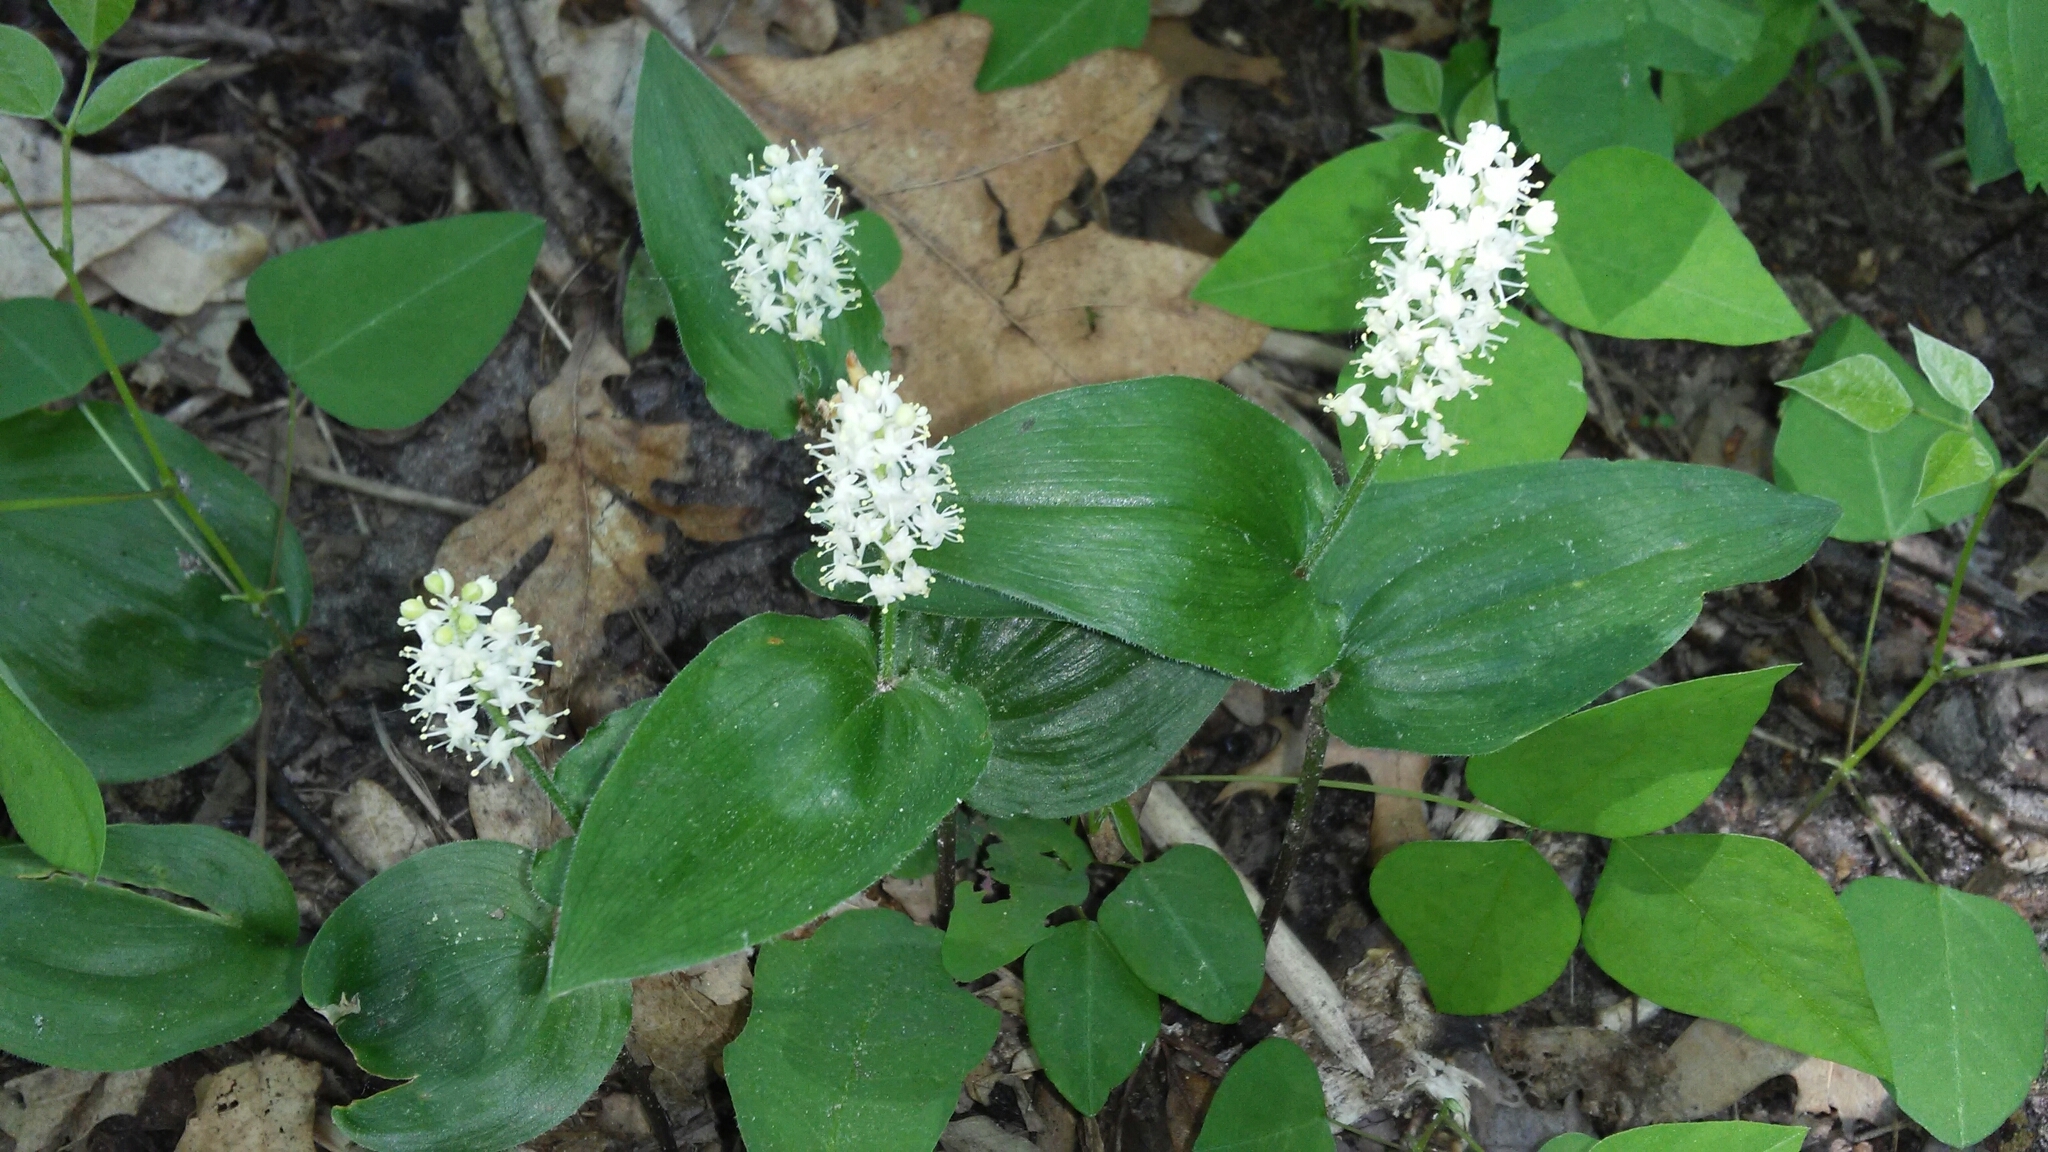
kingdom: Plantae
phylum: Tracheophyta
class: Liliopsida
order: Asparagales
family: Asparagaceae
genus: Maianthemum
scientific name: Maianthemum canadense
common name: False lily-of-the-valley
